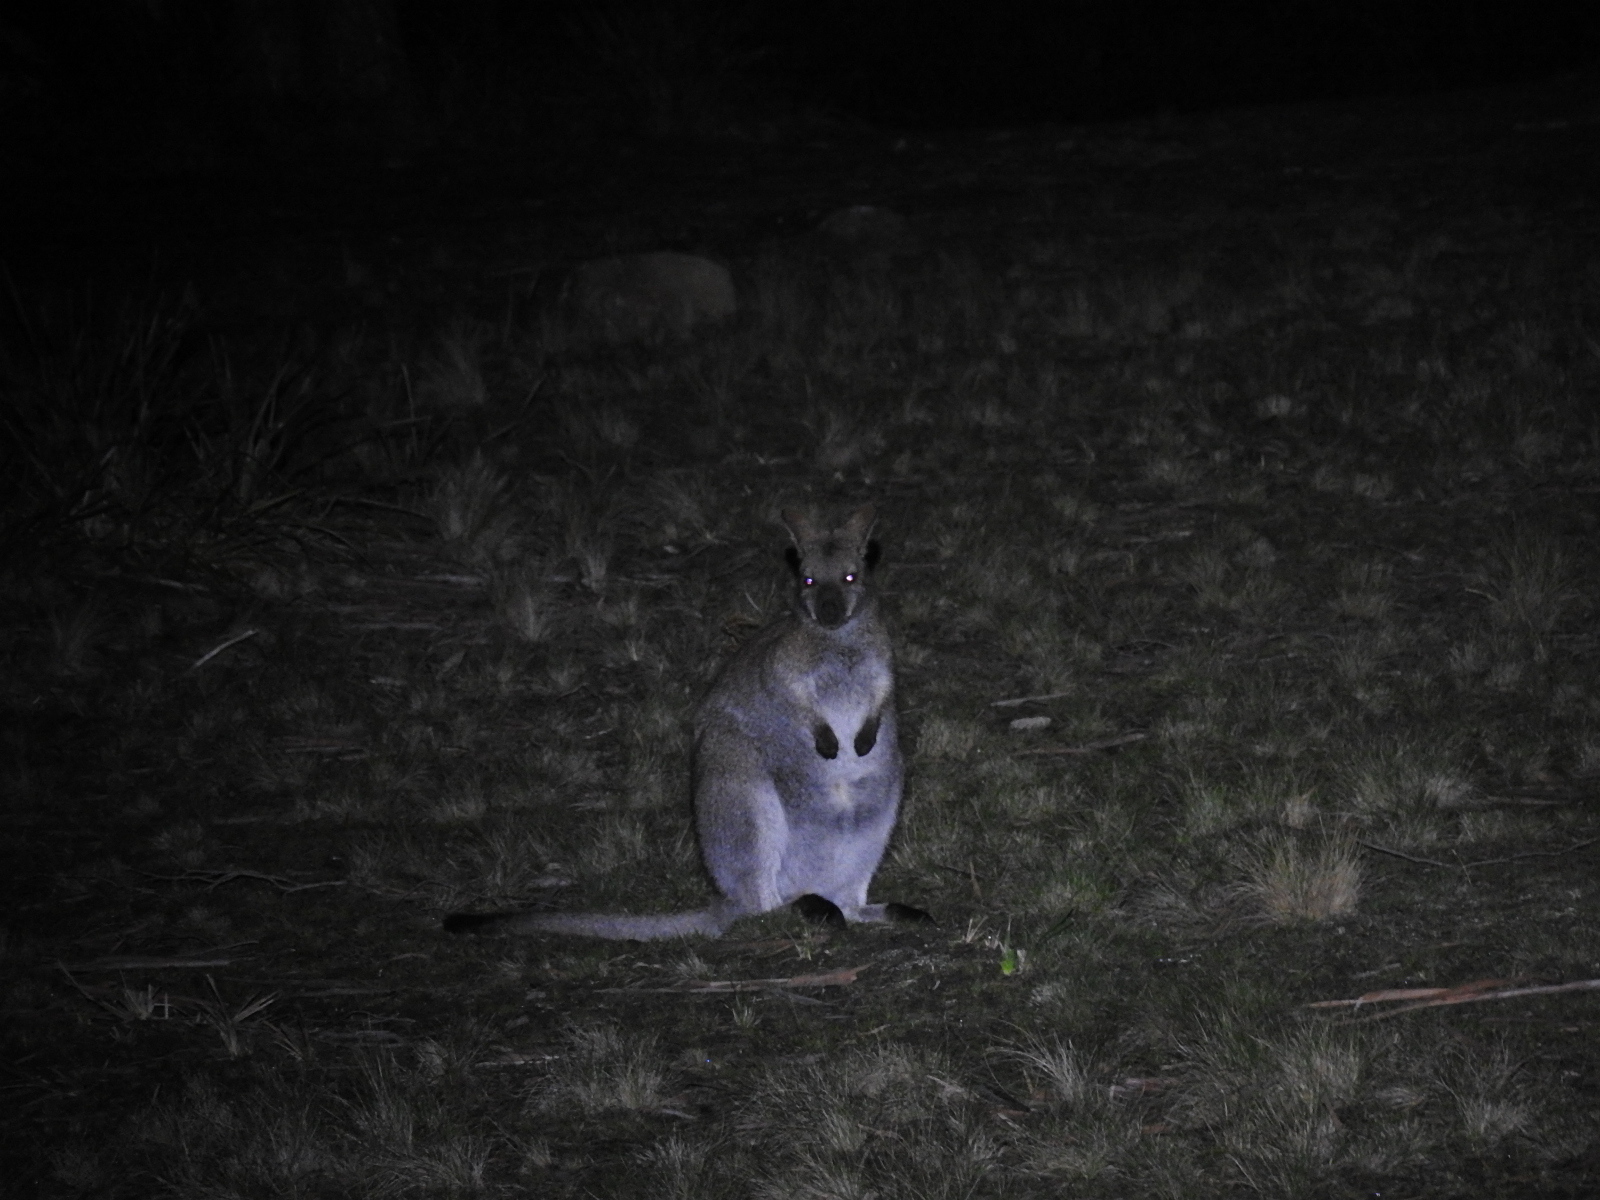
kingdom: Animalia
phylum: Chordata
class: Mammalia
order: Diprotodontia
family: Macropodidae
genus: Notamacropus
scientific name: Notamacropus rufogriseus
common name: Red-necked wallaby
